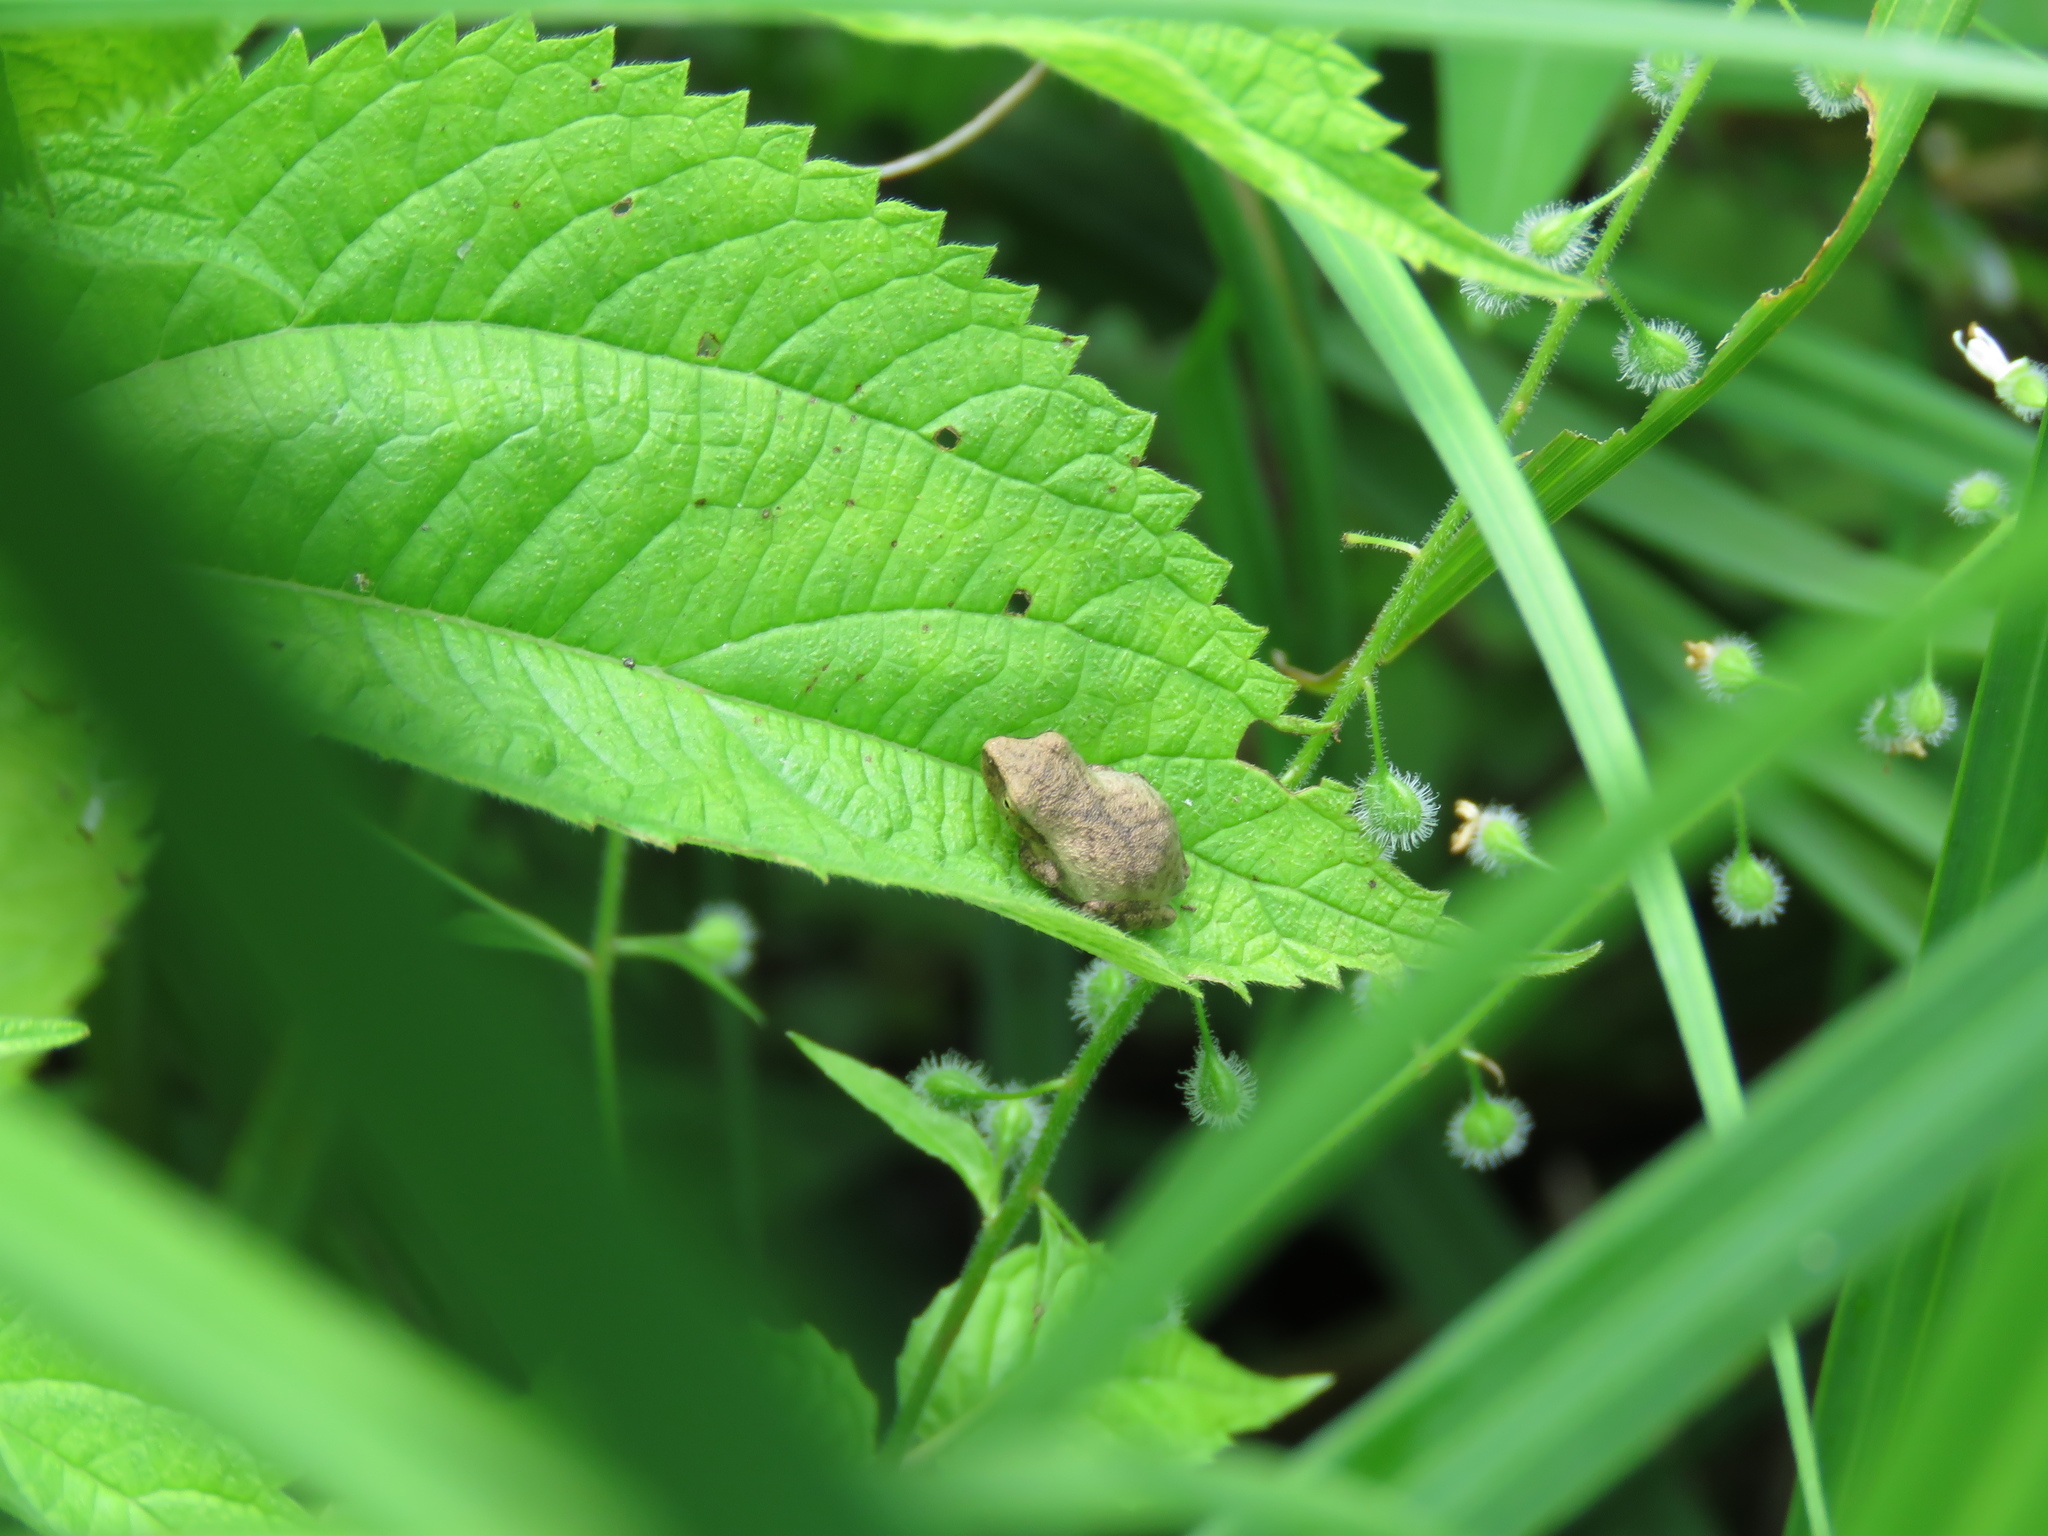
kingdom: Animalia
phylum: Chordata
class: Amphibia
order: Anura
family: Hylidae
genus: Pseudacris
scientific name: Pseudacris crucifer
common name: Spring peeper
